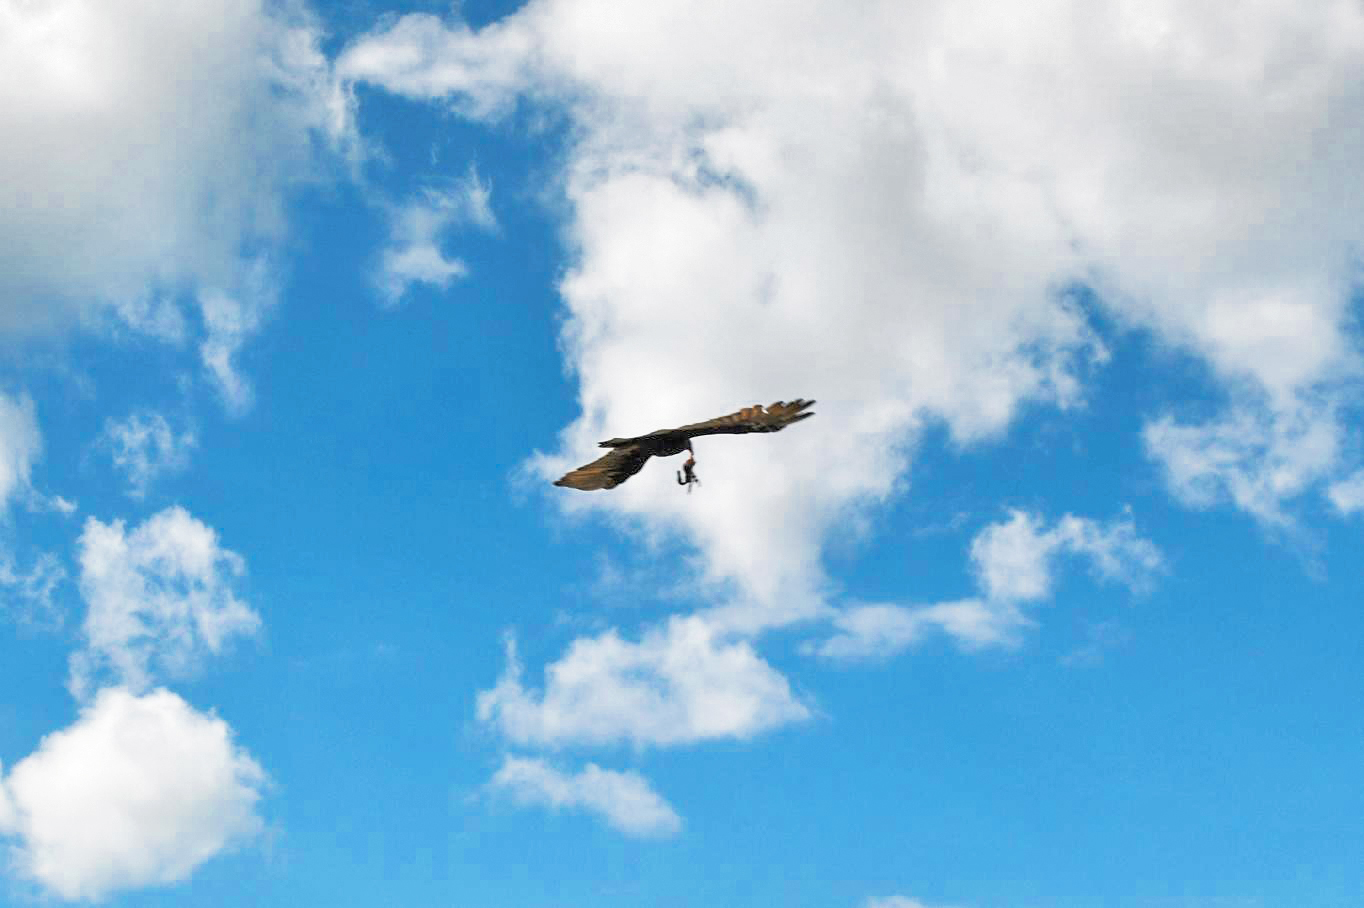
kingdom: Animalia
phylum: Chordata
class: Aves
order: Accipitriformes
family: Cathartidae
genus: Cathartes
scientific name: Cathartes aura
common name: Turkey vulture
